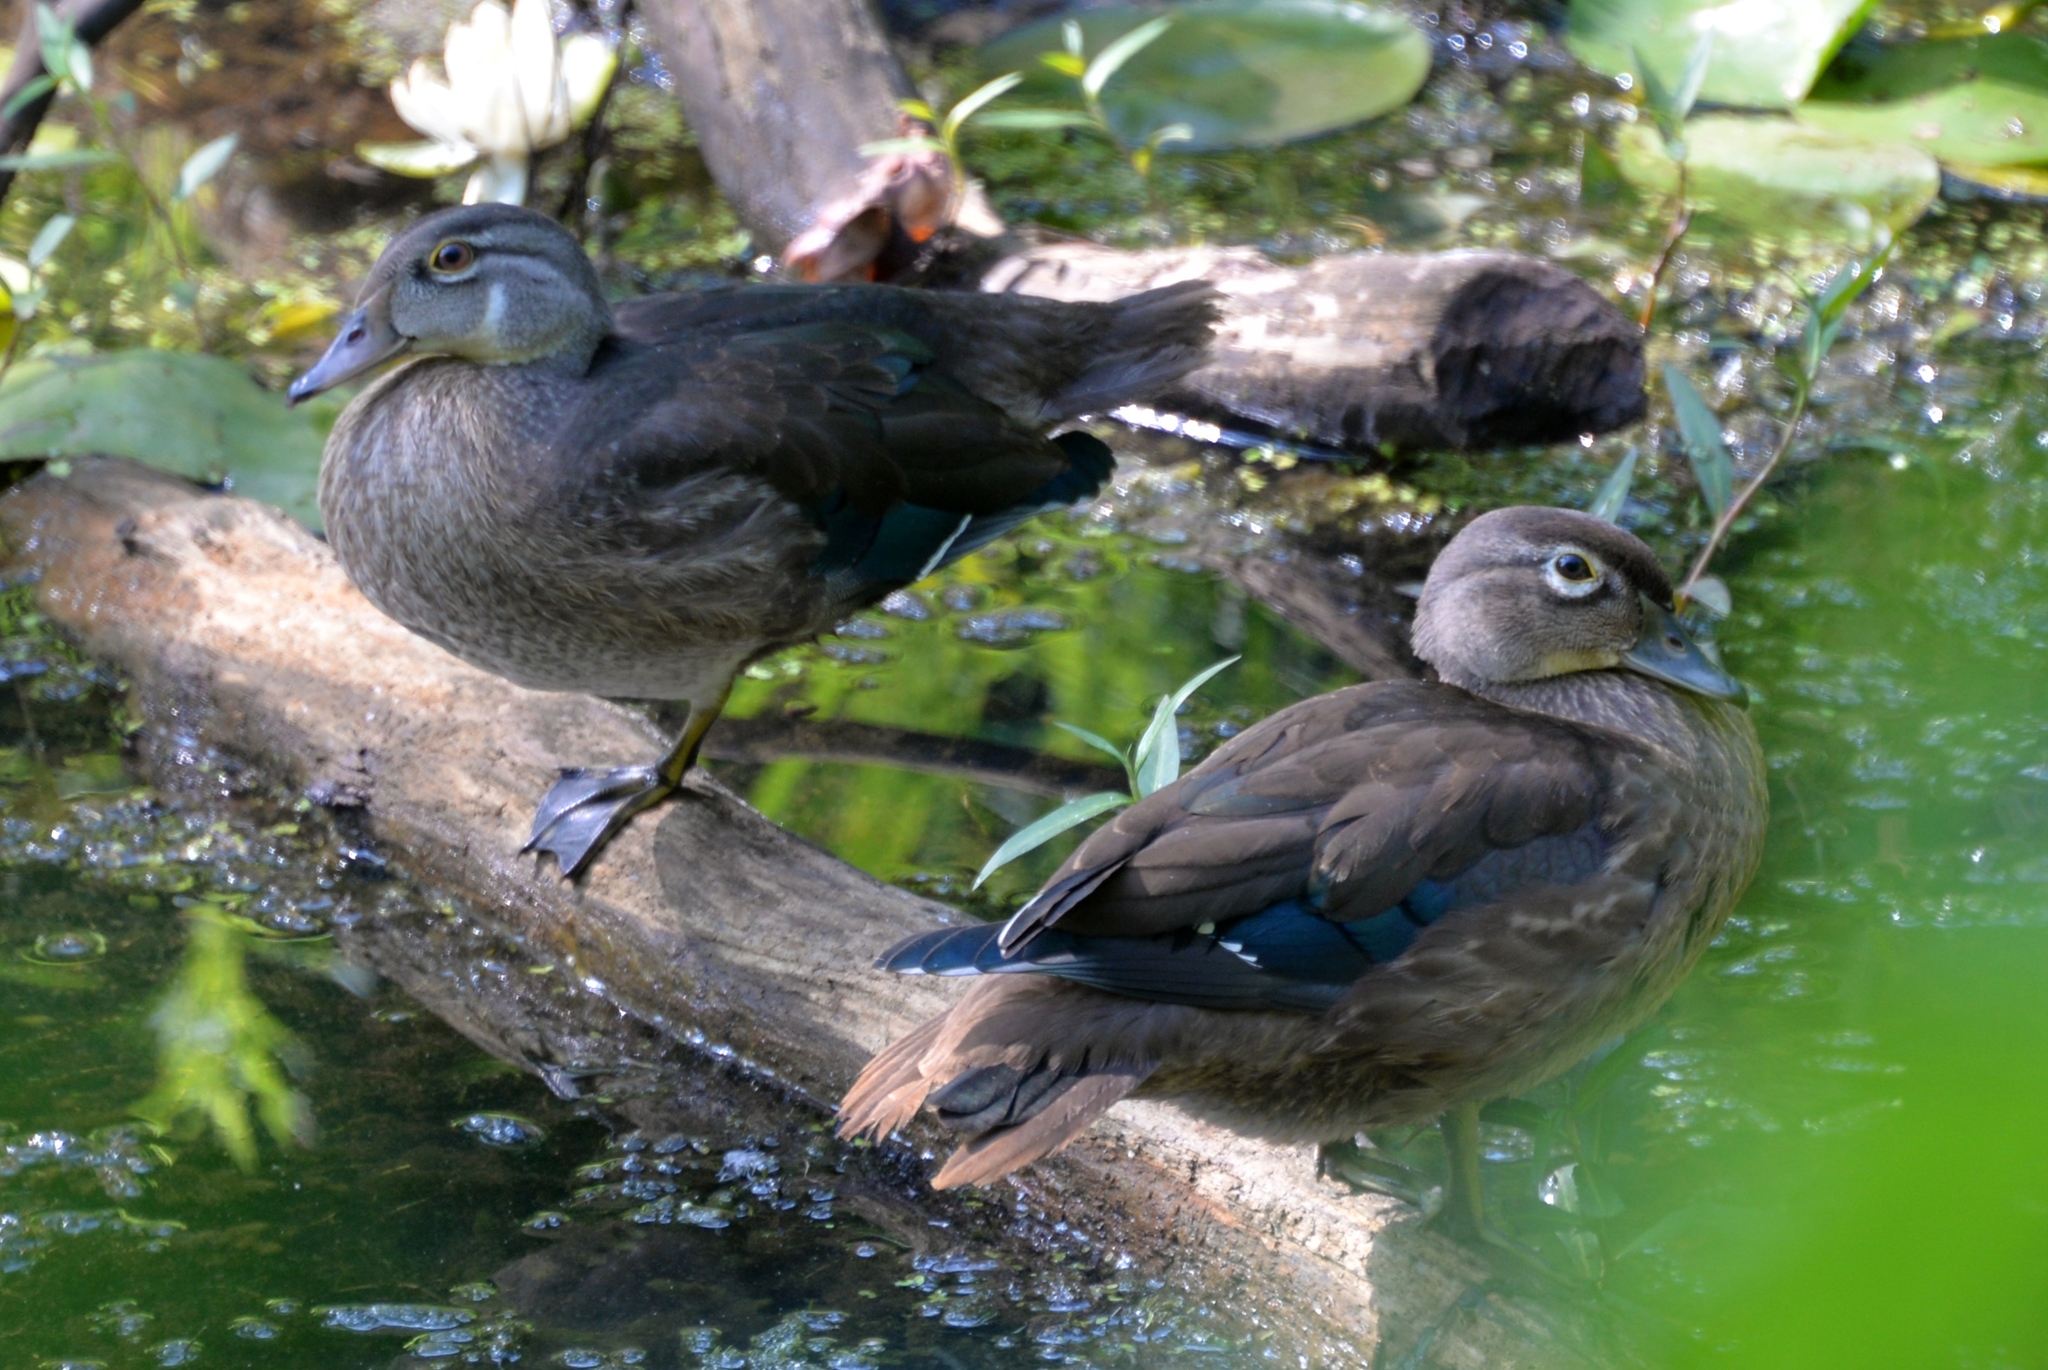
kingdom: Animalia
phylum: Chordata
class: Aves
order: Anseriformes
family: Anatidae
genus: Aix
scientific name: Aix sponsa
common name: Wood duck
